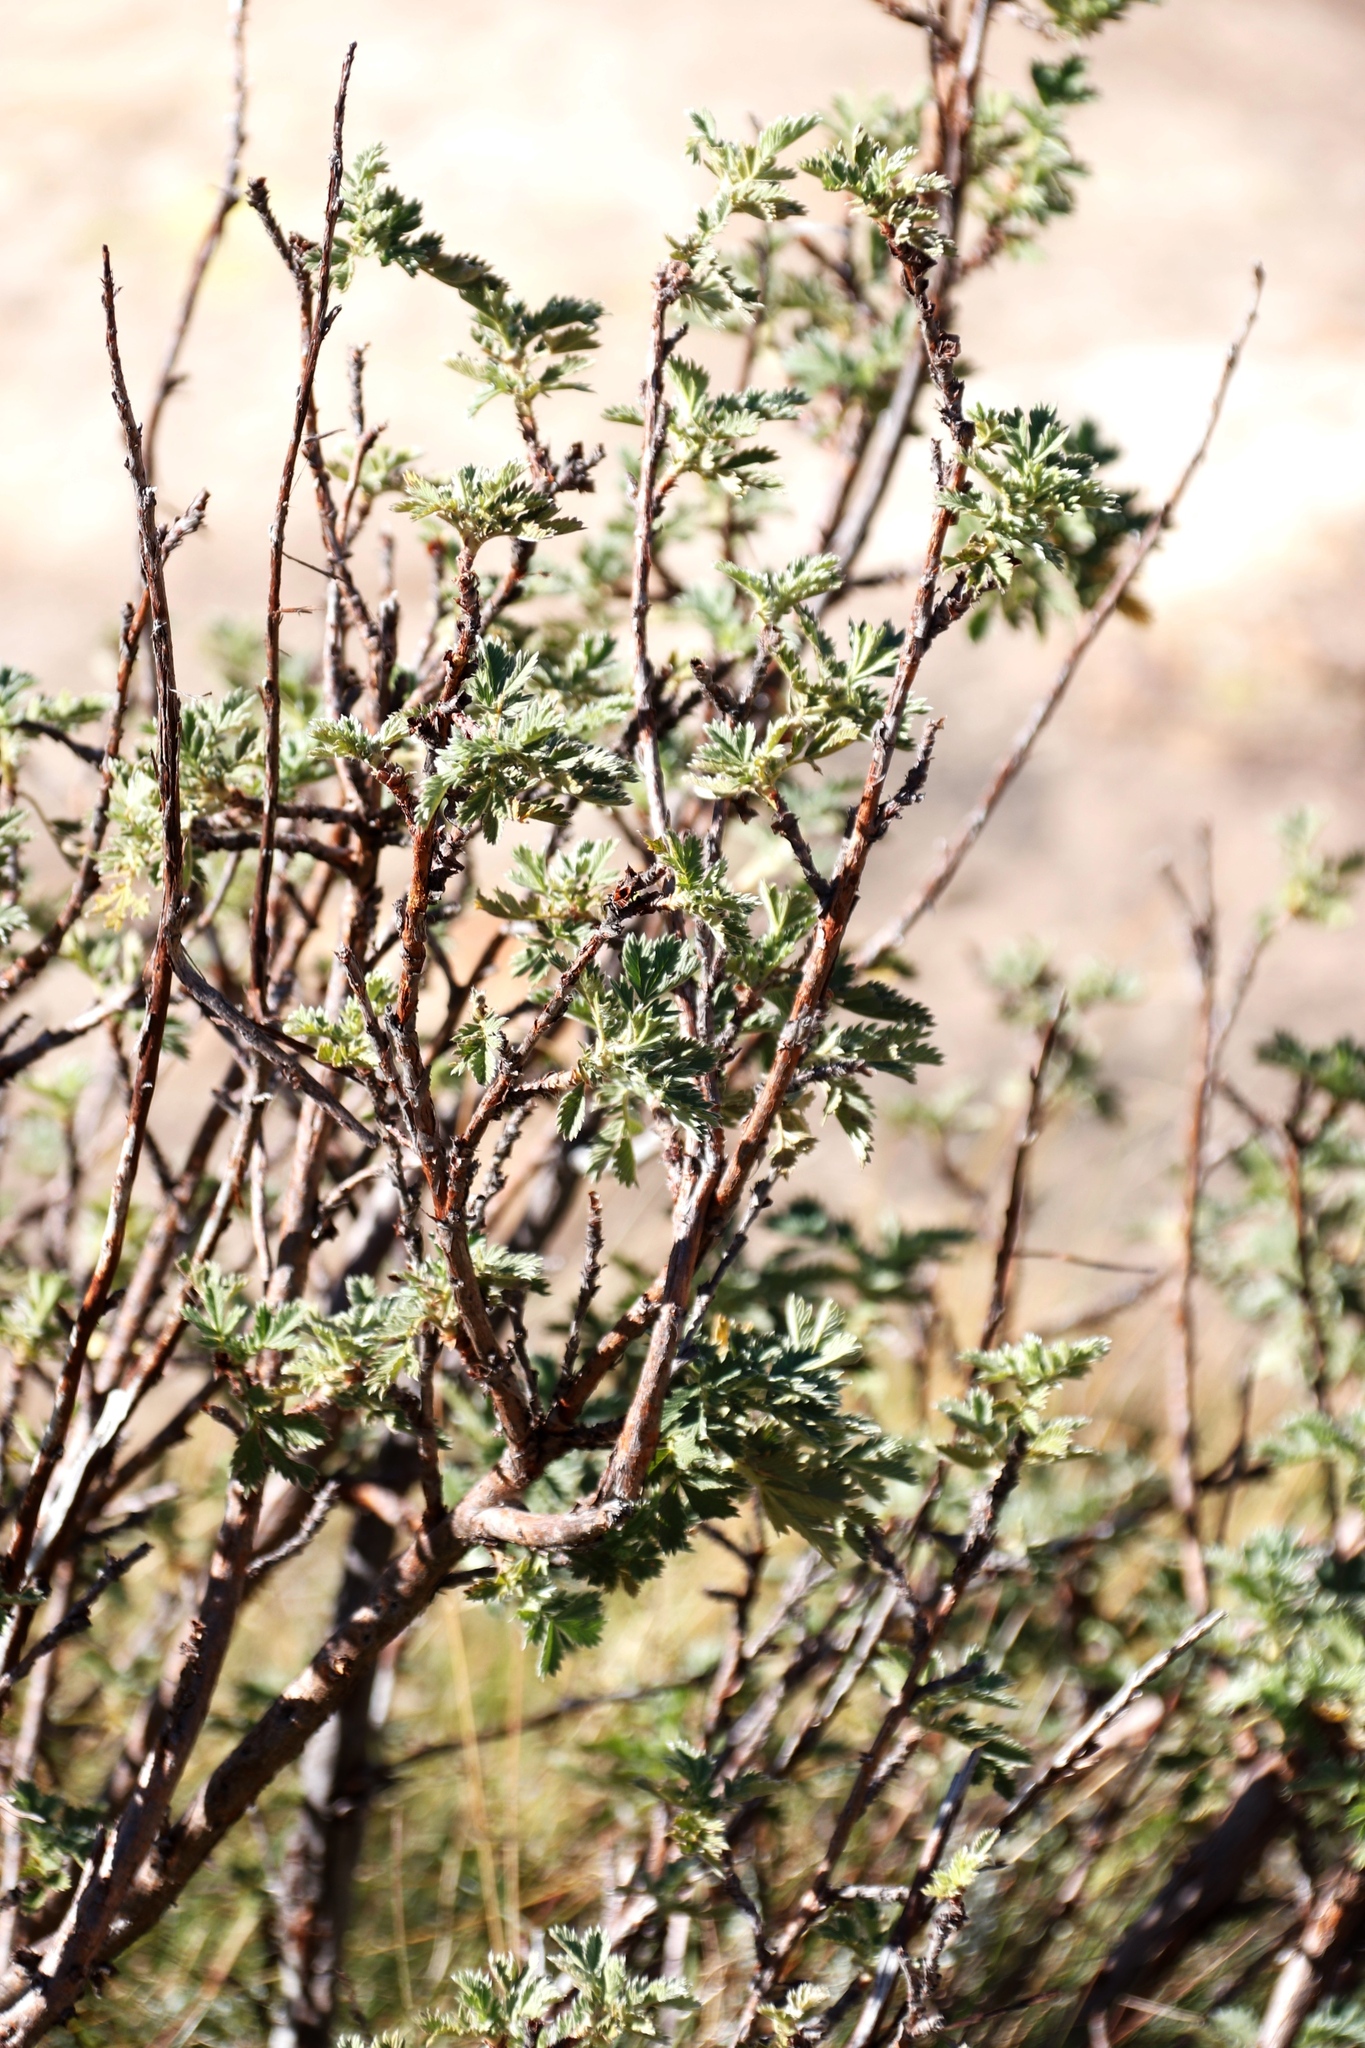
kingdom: Plantae
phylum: Tracheophyta
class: Magnoliopsida
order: Rosales
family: Rosaceae
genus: Leucosidea
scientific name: Leucosidea sericea
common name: Oldwood
